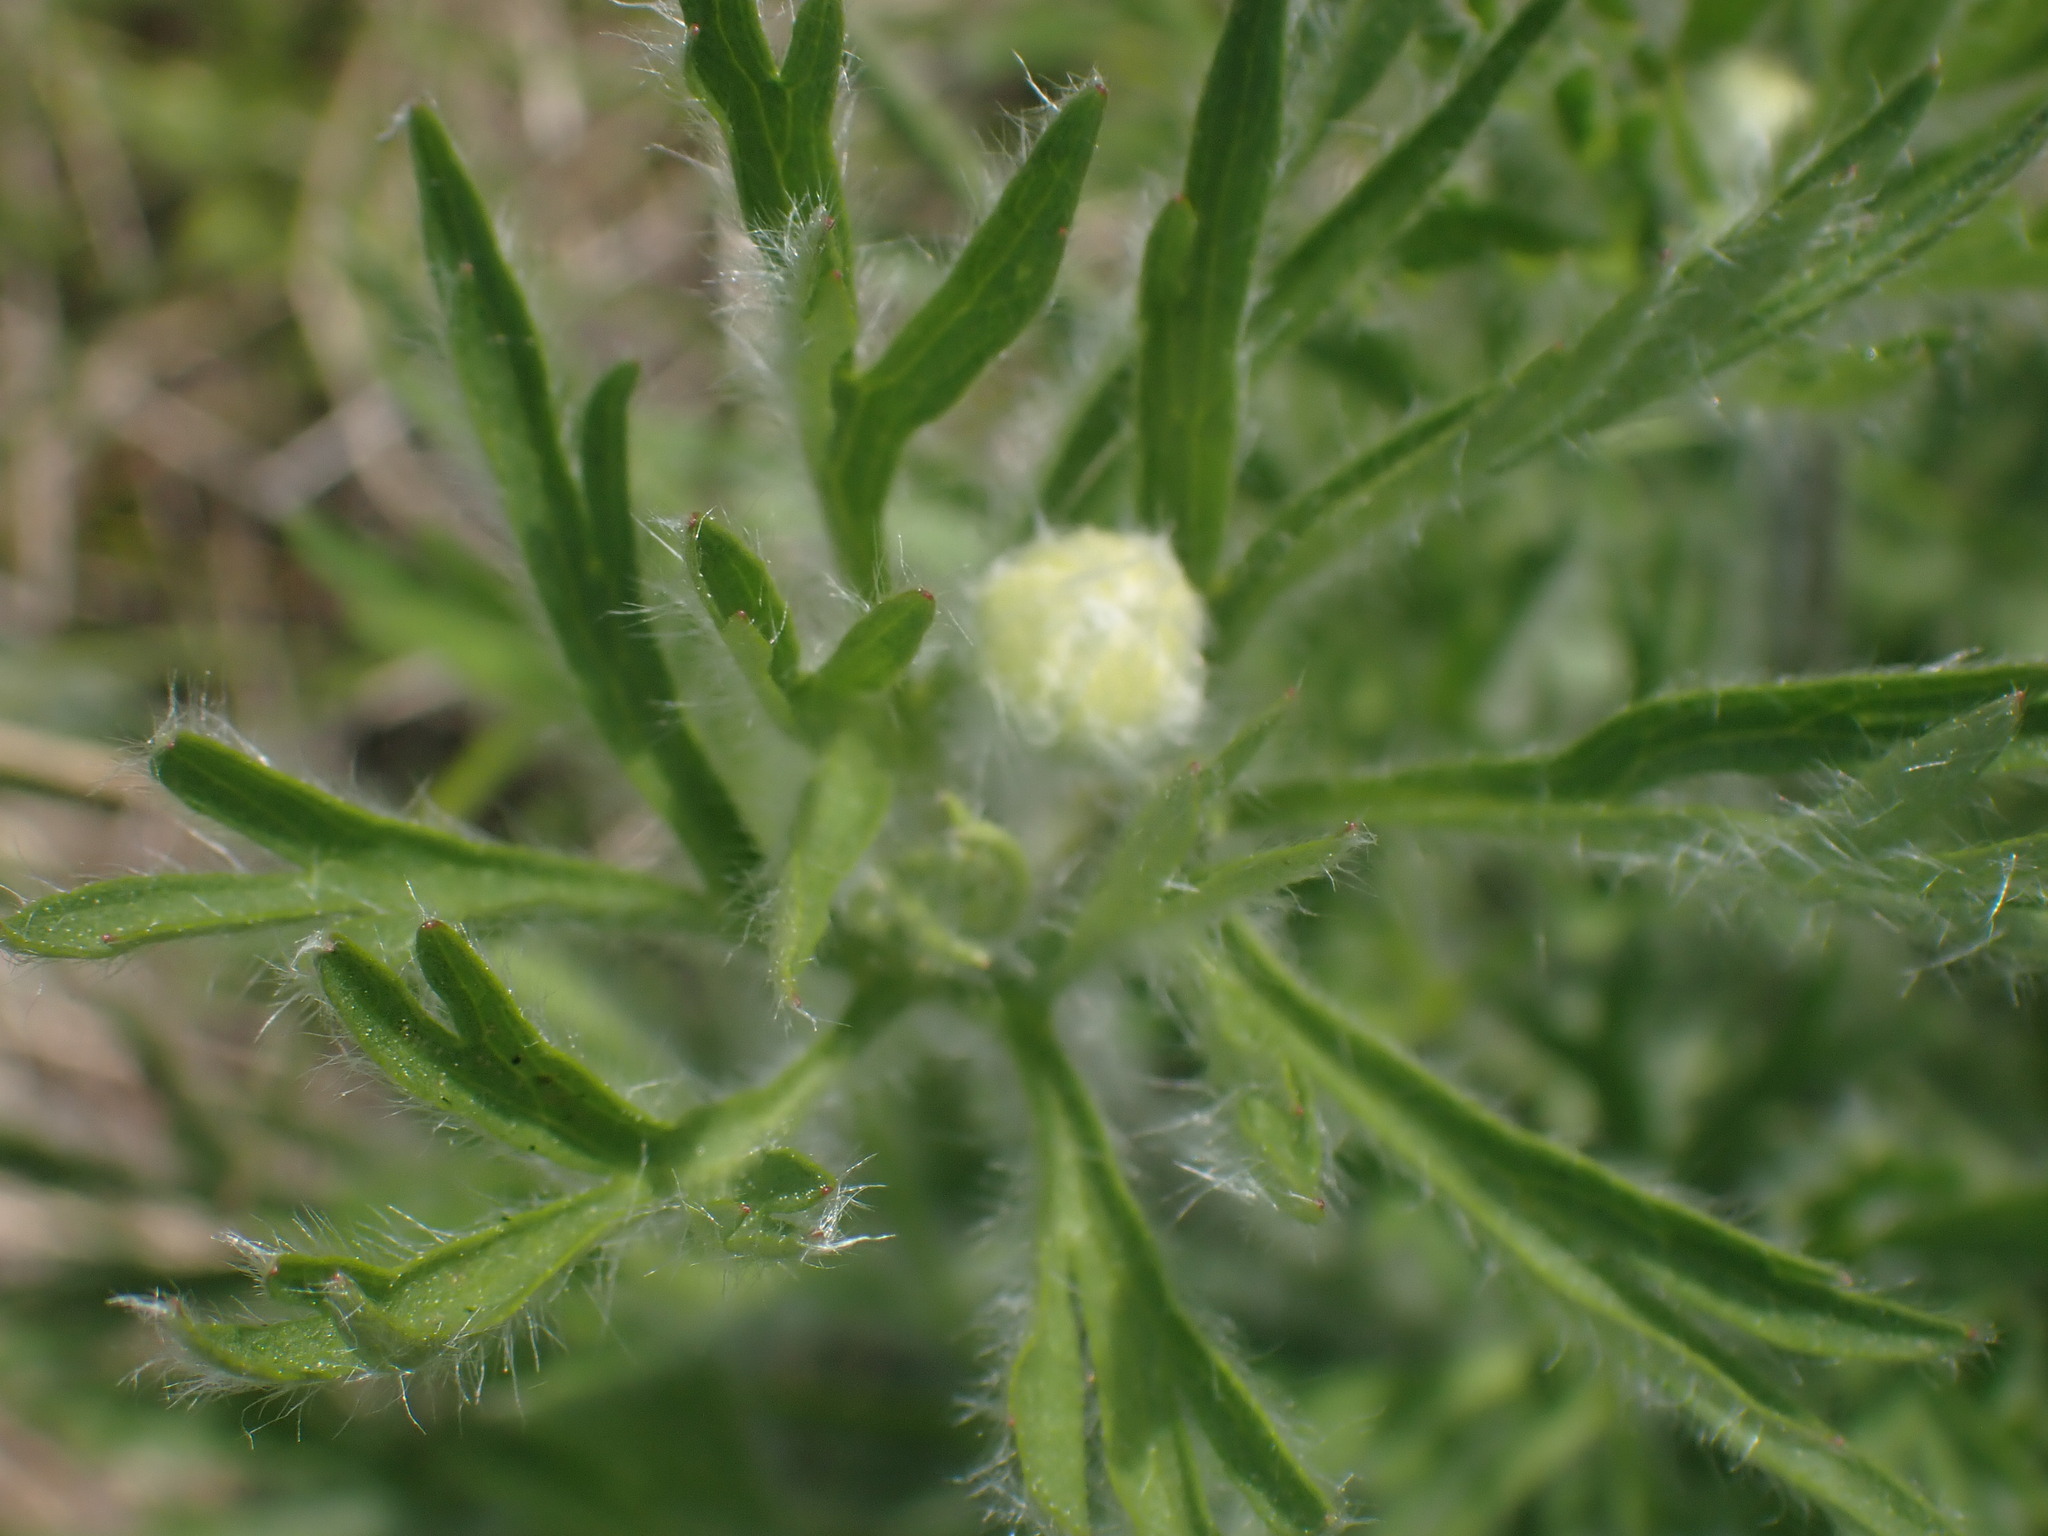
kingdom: Plantae
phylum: Tracheophyta
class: Magnoliopsida
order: Ranunculales
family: Ranunculaceae
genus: Anemone
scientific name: Anemone multifida
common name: Bird's-foot anemone
